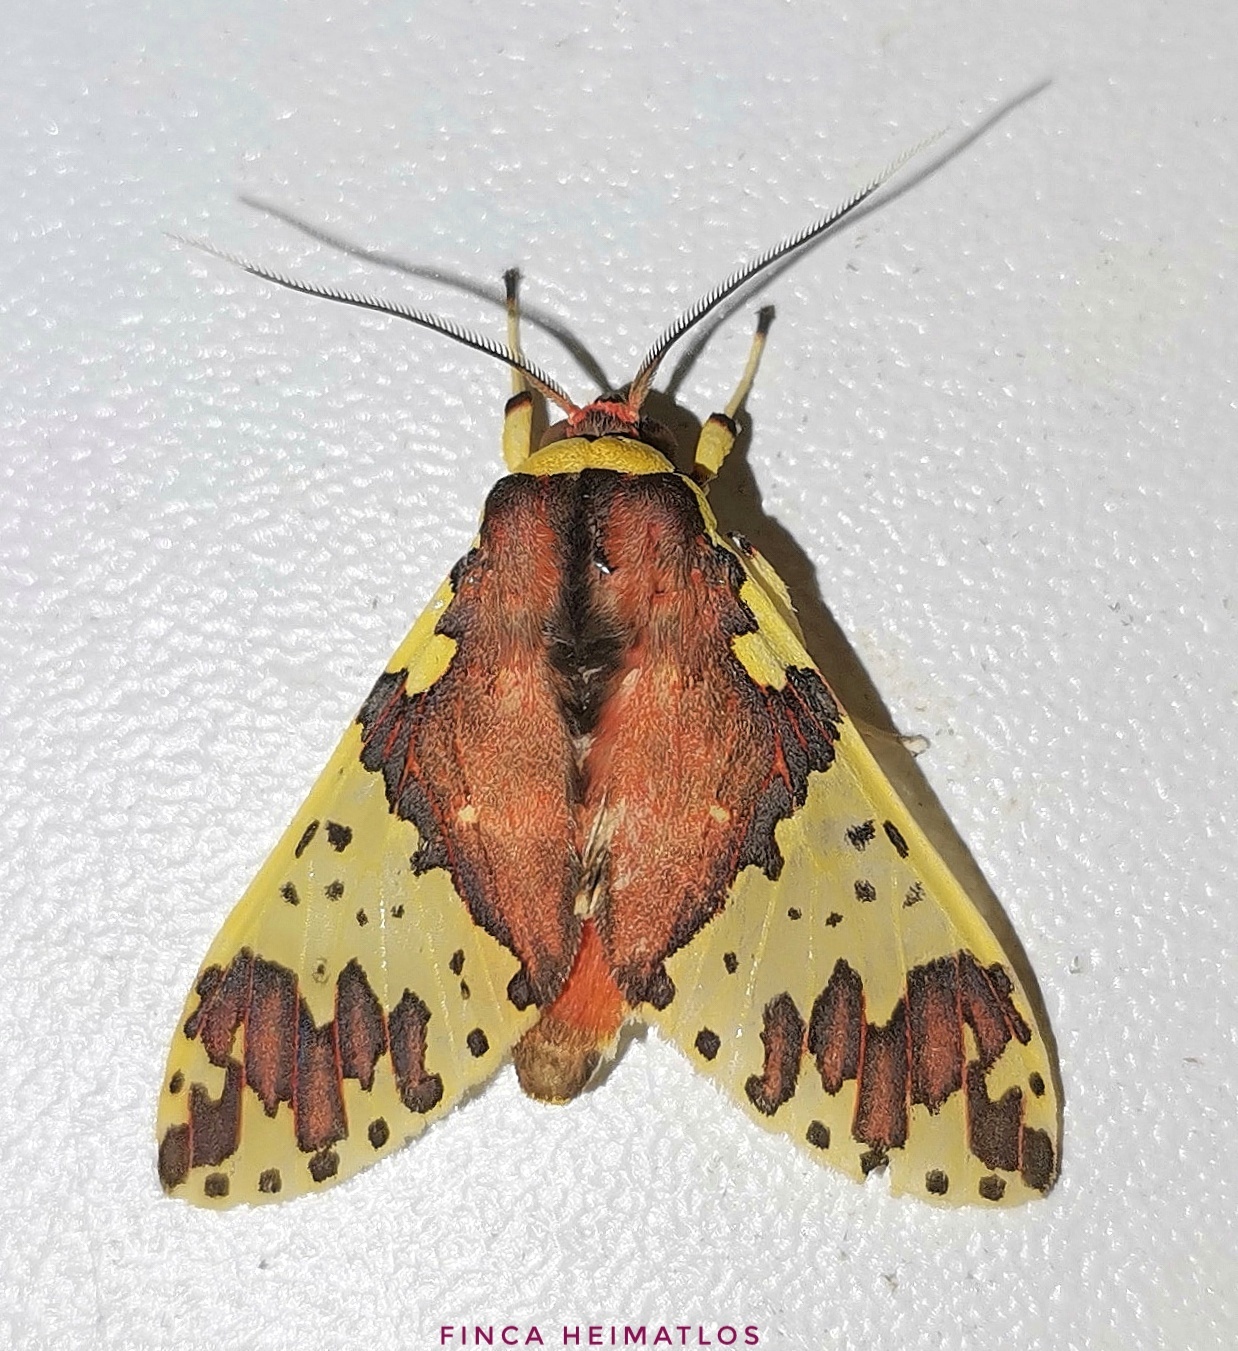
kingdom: Animalia
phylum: Arthropoda
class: Insecta
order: Lepidoptera
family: Erebidae
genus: Amaxia
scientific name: Amaxia carinosa
